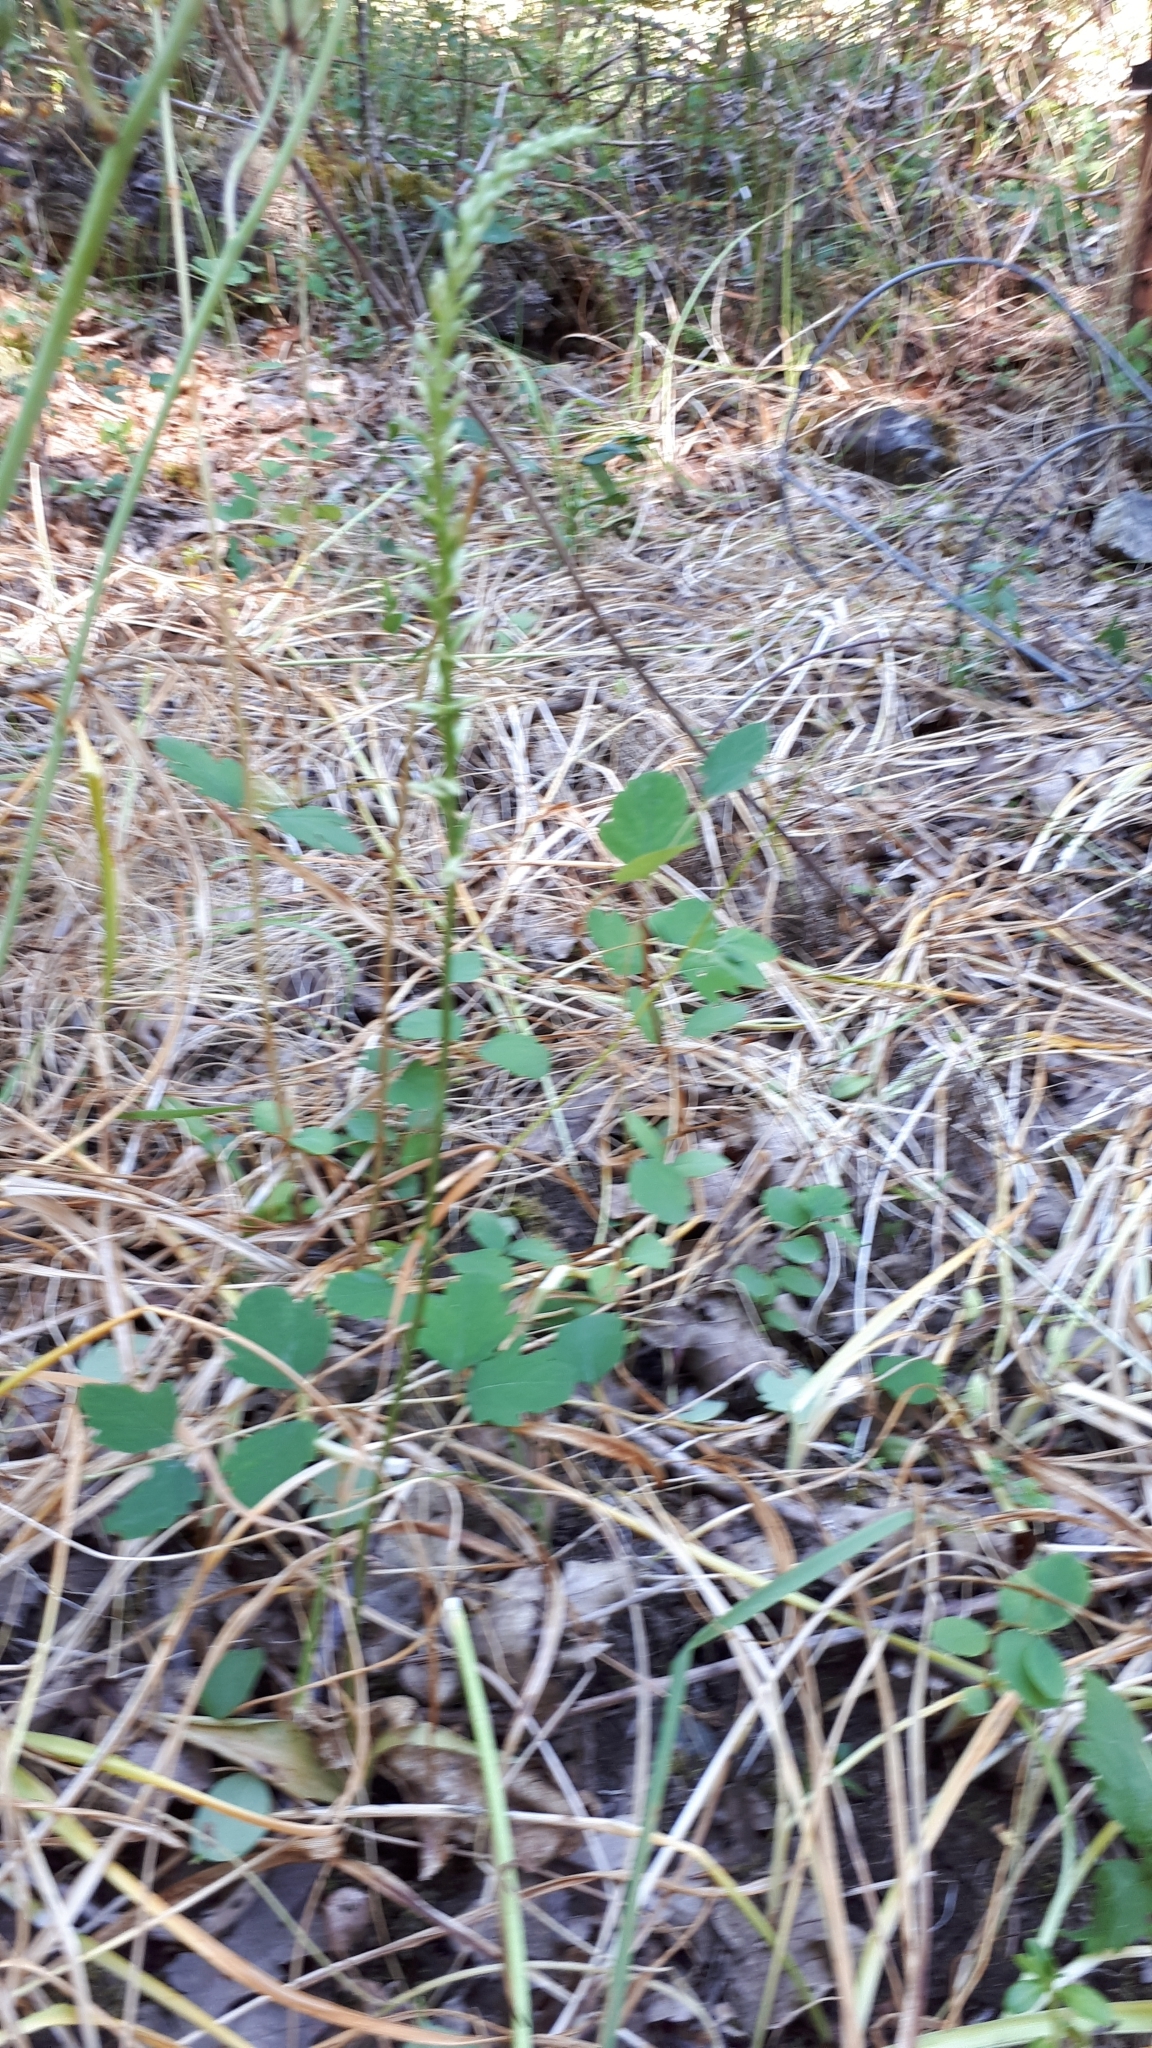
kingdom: Plantae
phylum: Tracheophyta
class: Liliopsida
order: Asparagales
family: Orchidaceae
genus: Platanthera
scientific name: Platanthera elegans
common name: Coast piperia
